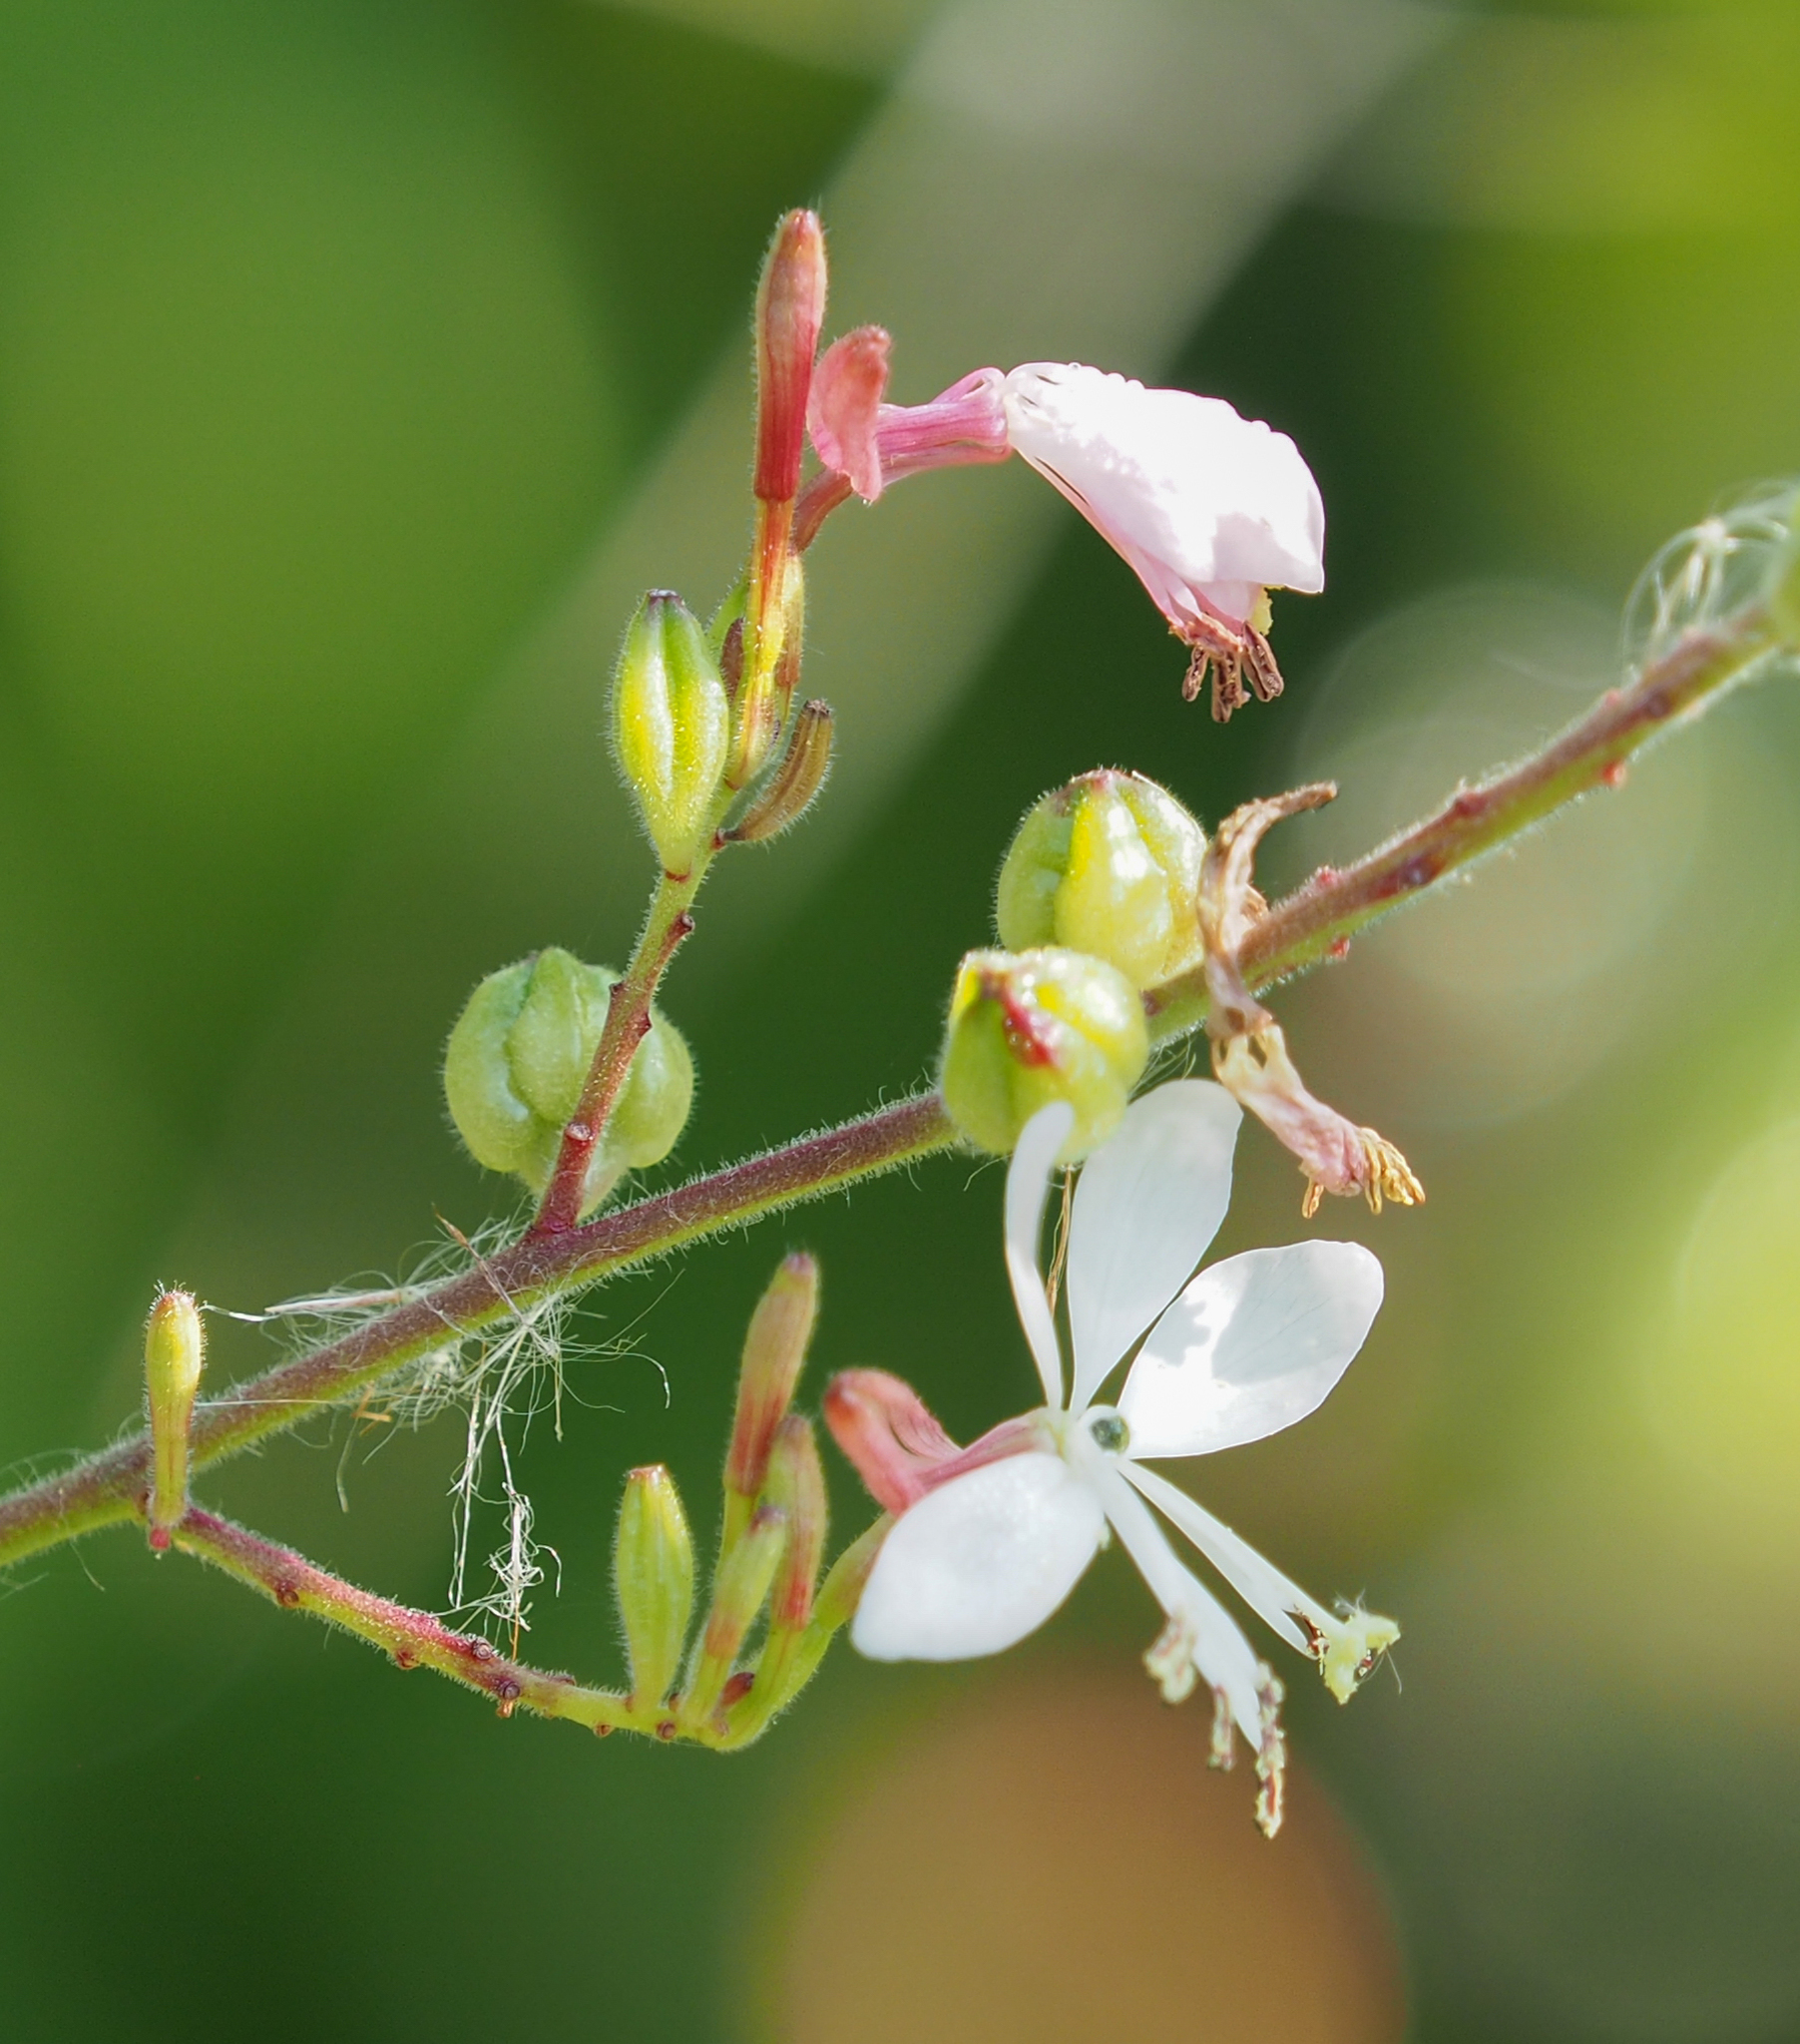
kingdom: Plantae
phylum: Tracheophyta
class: Magnoliopsida
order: Myrtales
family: Onagraceae
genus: Oenothera
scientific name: Oenothera gaura
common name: Biennial beeblossom
